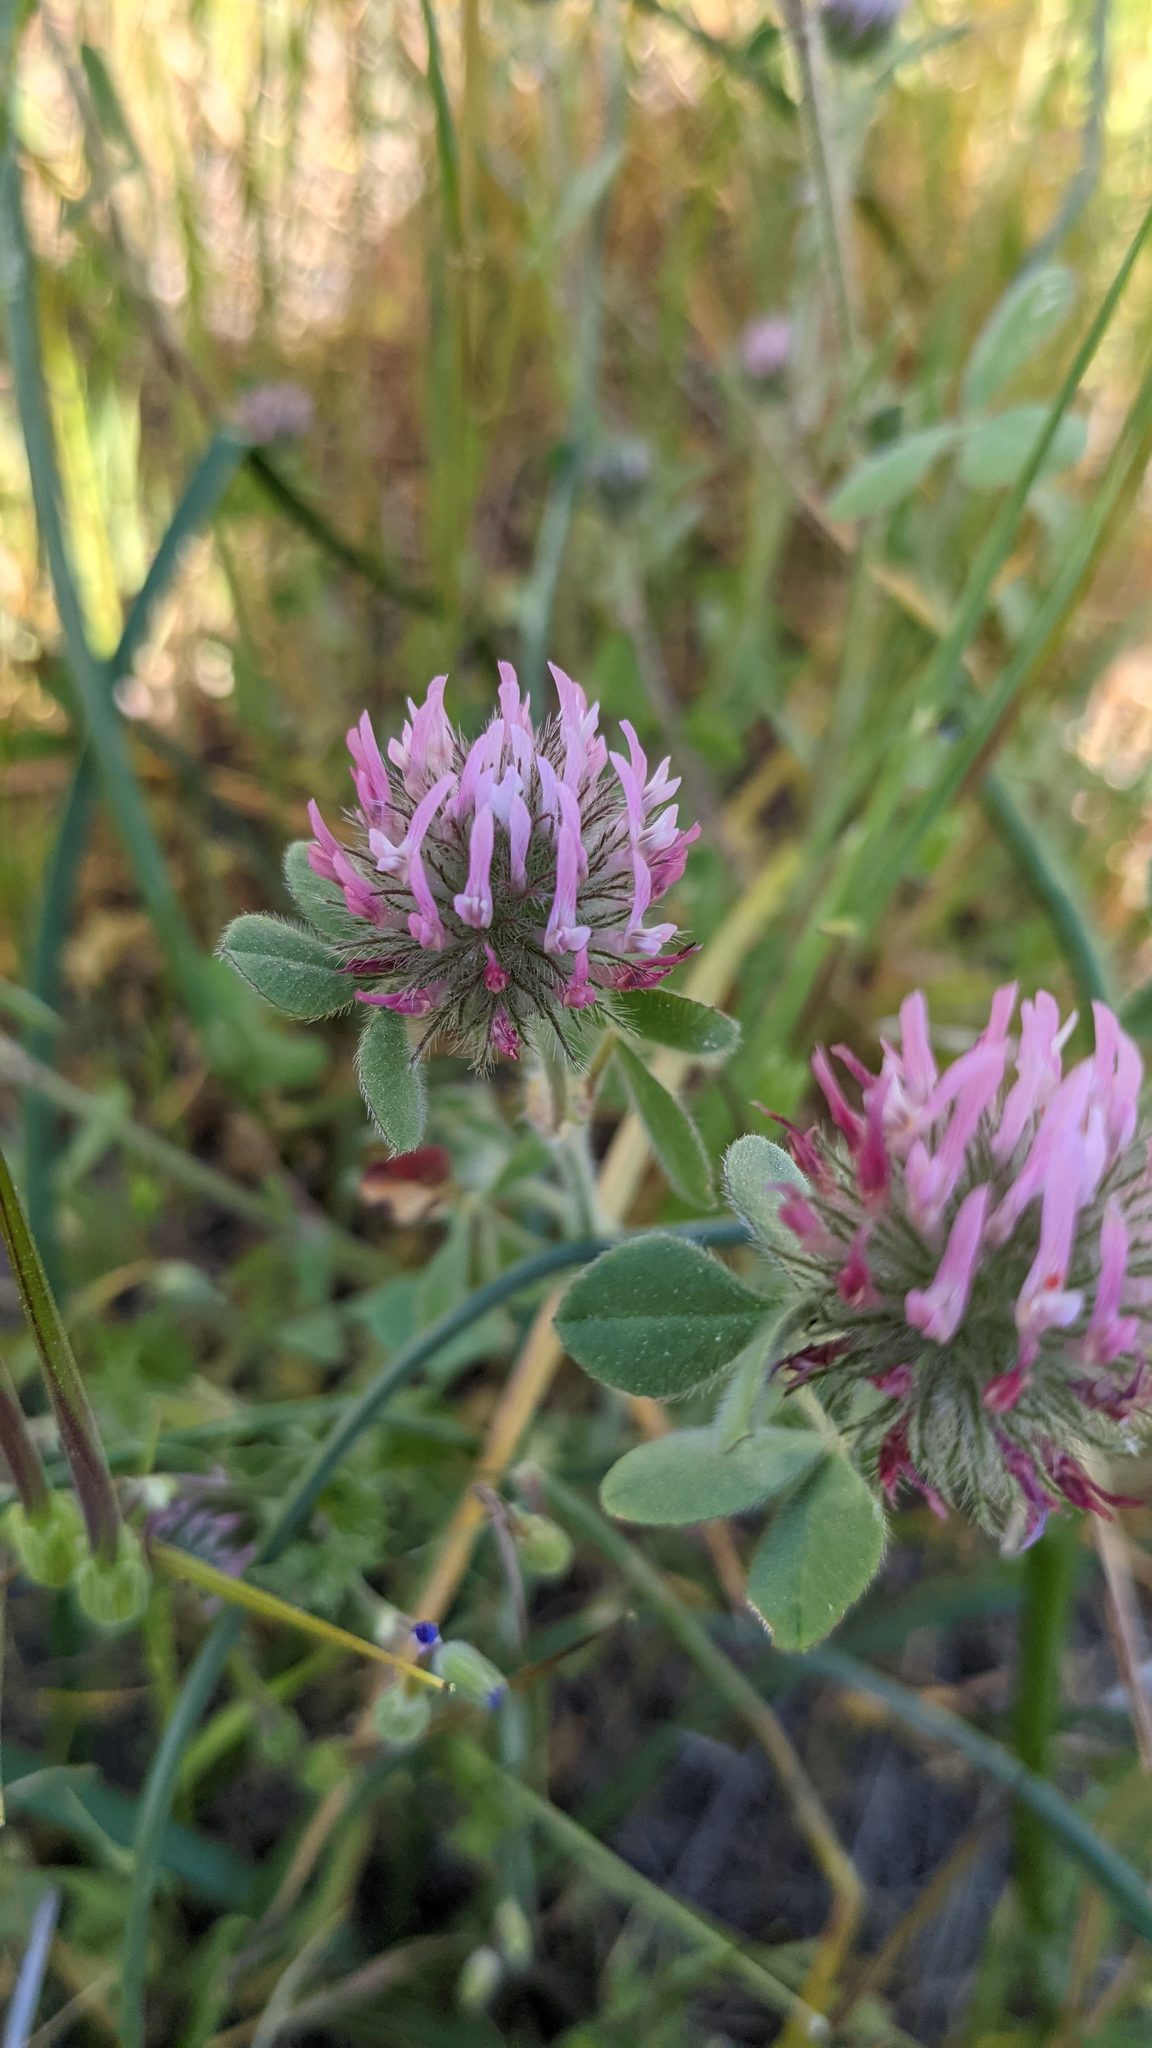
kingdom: Plantae
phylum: Tracheophyta
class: Magnoliopsida
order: Fabales
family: Fabaceae
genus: Trifolium
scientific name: Trifolium hirtum
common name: Rose clover
